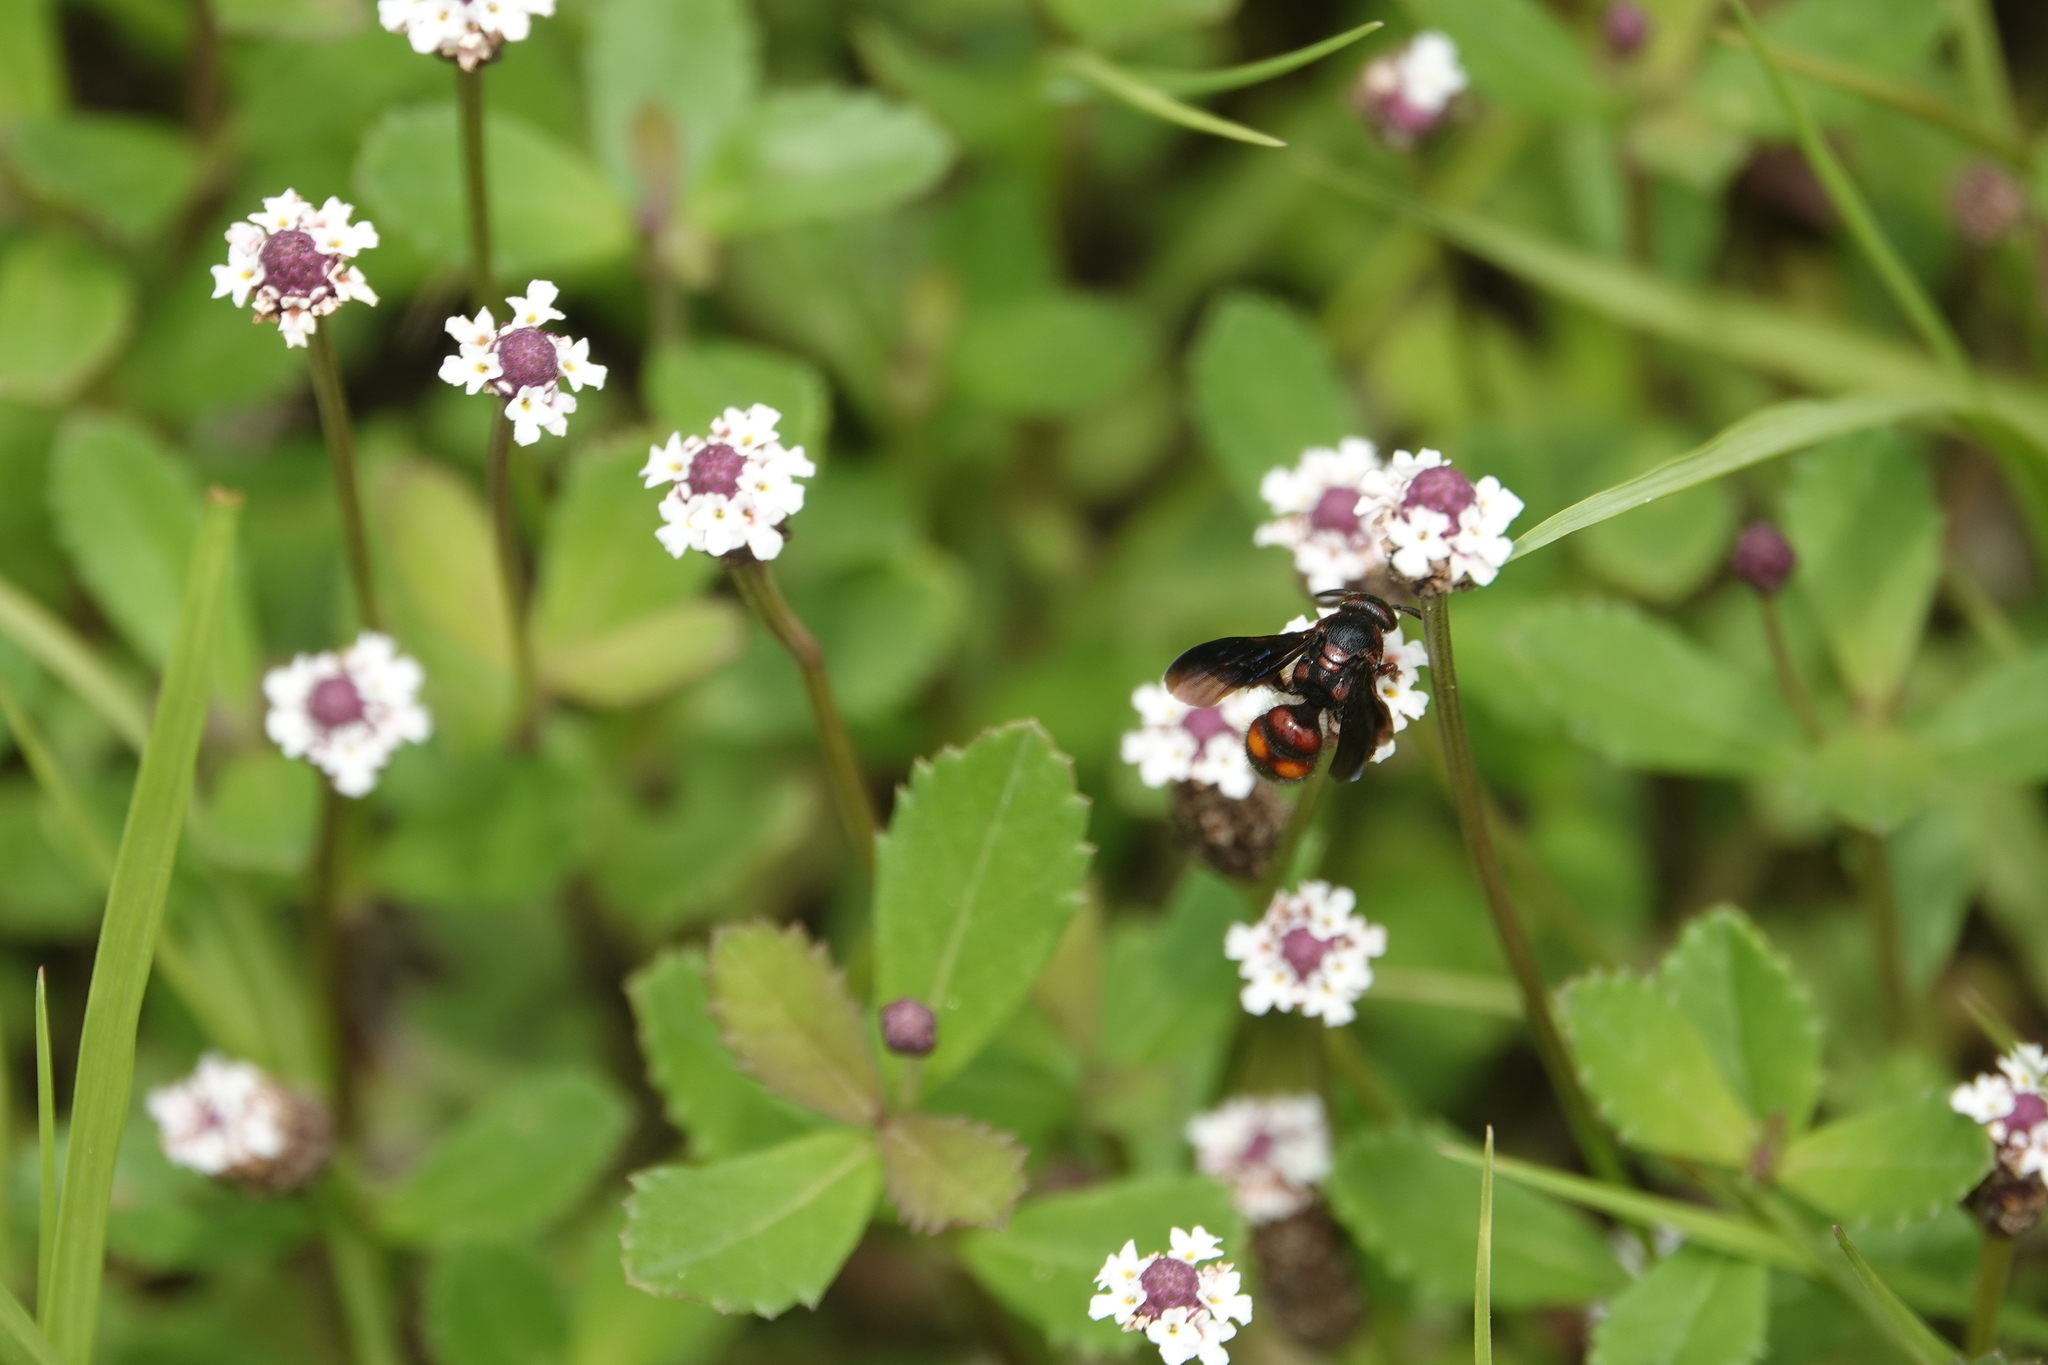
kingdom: Animalia
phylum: Arthropoda
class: Insecta
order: Hymenoptera
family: Scoliidae
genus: Scolia
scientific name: Scolia nobilitata
